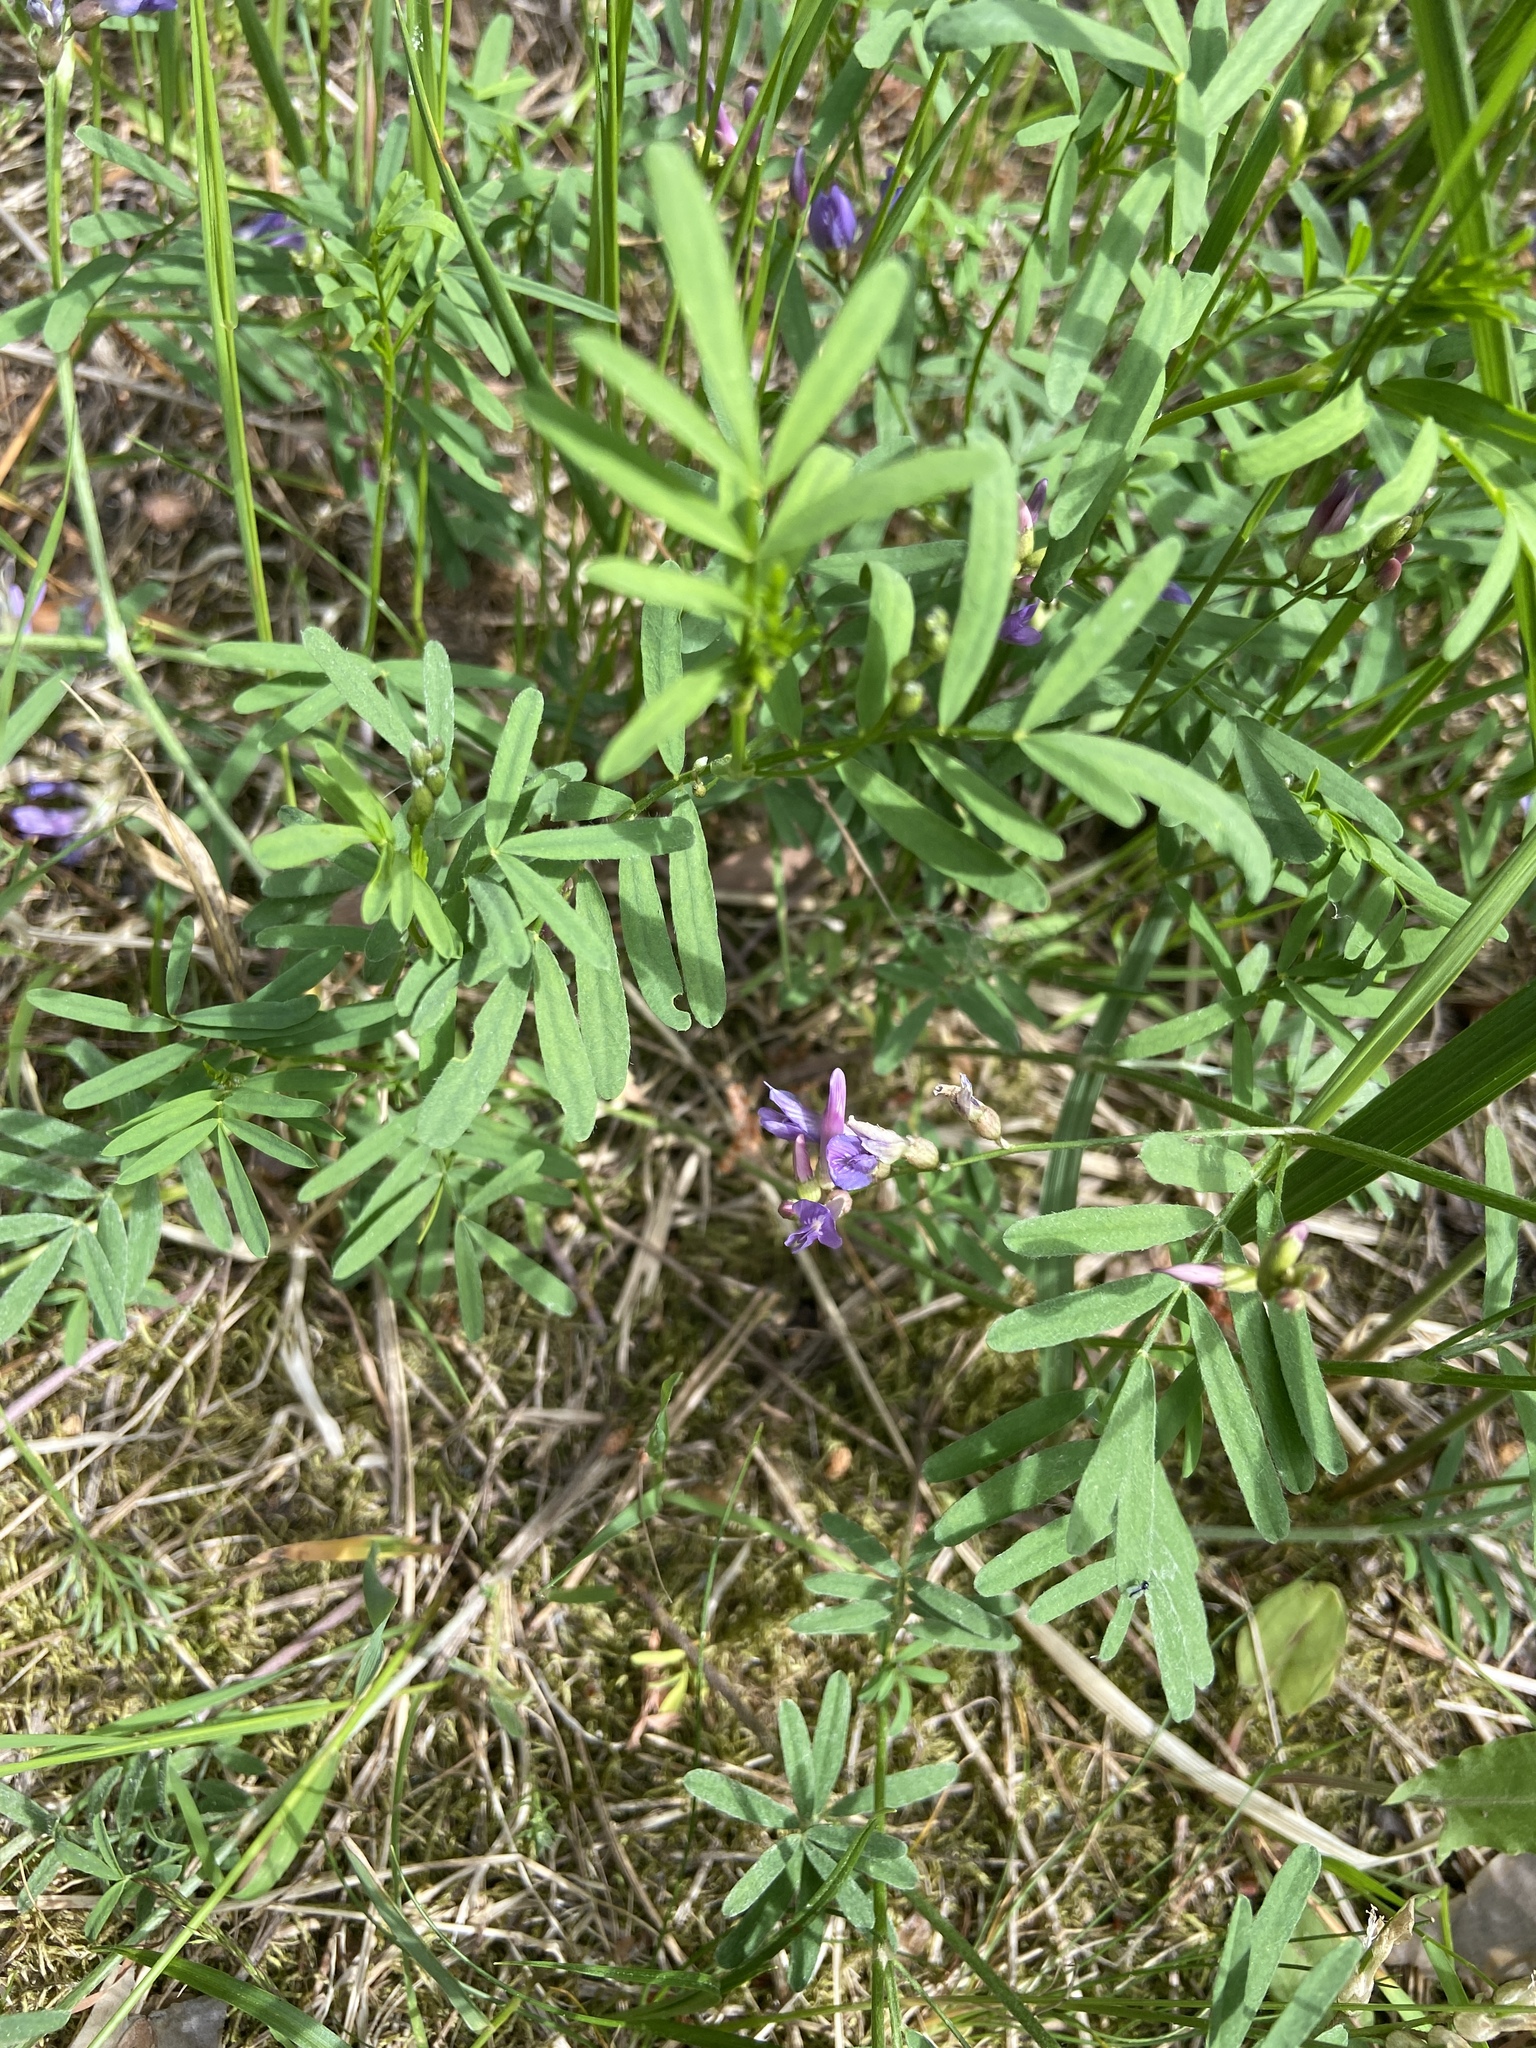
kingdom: Plantae
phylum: Tracheophyta
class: Magnoliopsida
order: Fabales
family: Fabaceae
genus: Astragalus
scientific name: Astragalus arenarius
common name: Arenarious milk-vetch
